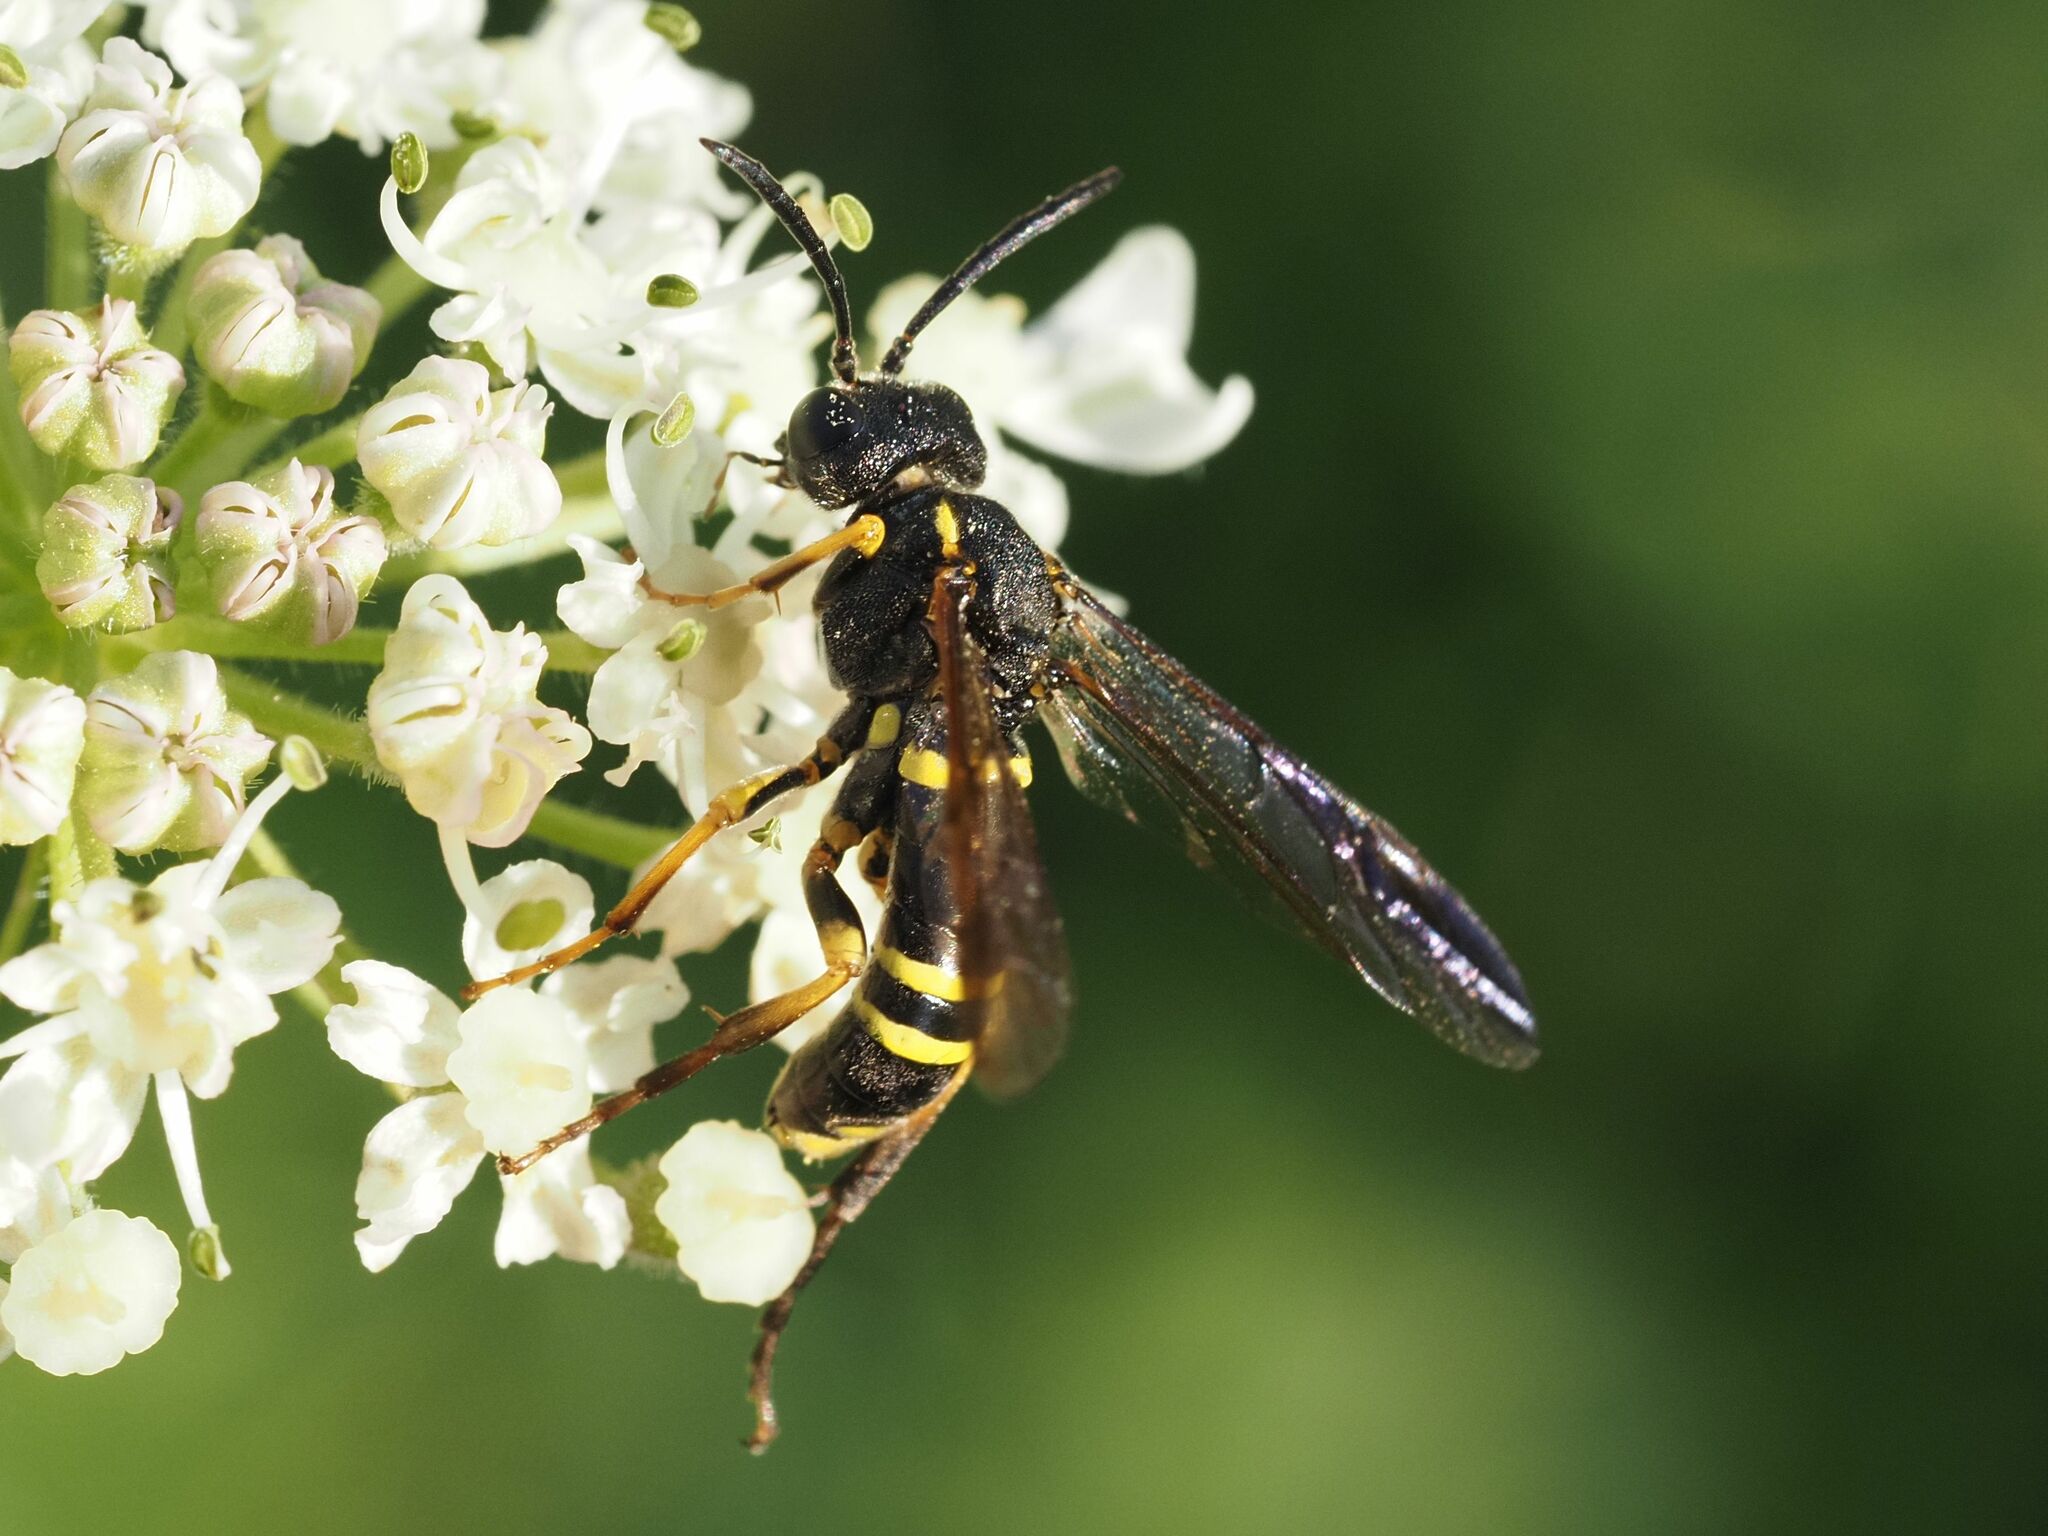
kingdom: Animalia
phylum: Arthropoda
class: Insecta
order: Hymenoptera
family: Tenthredinidae
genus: Tenthredo
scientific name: Tenthredo vespa
